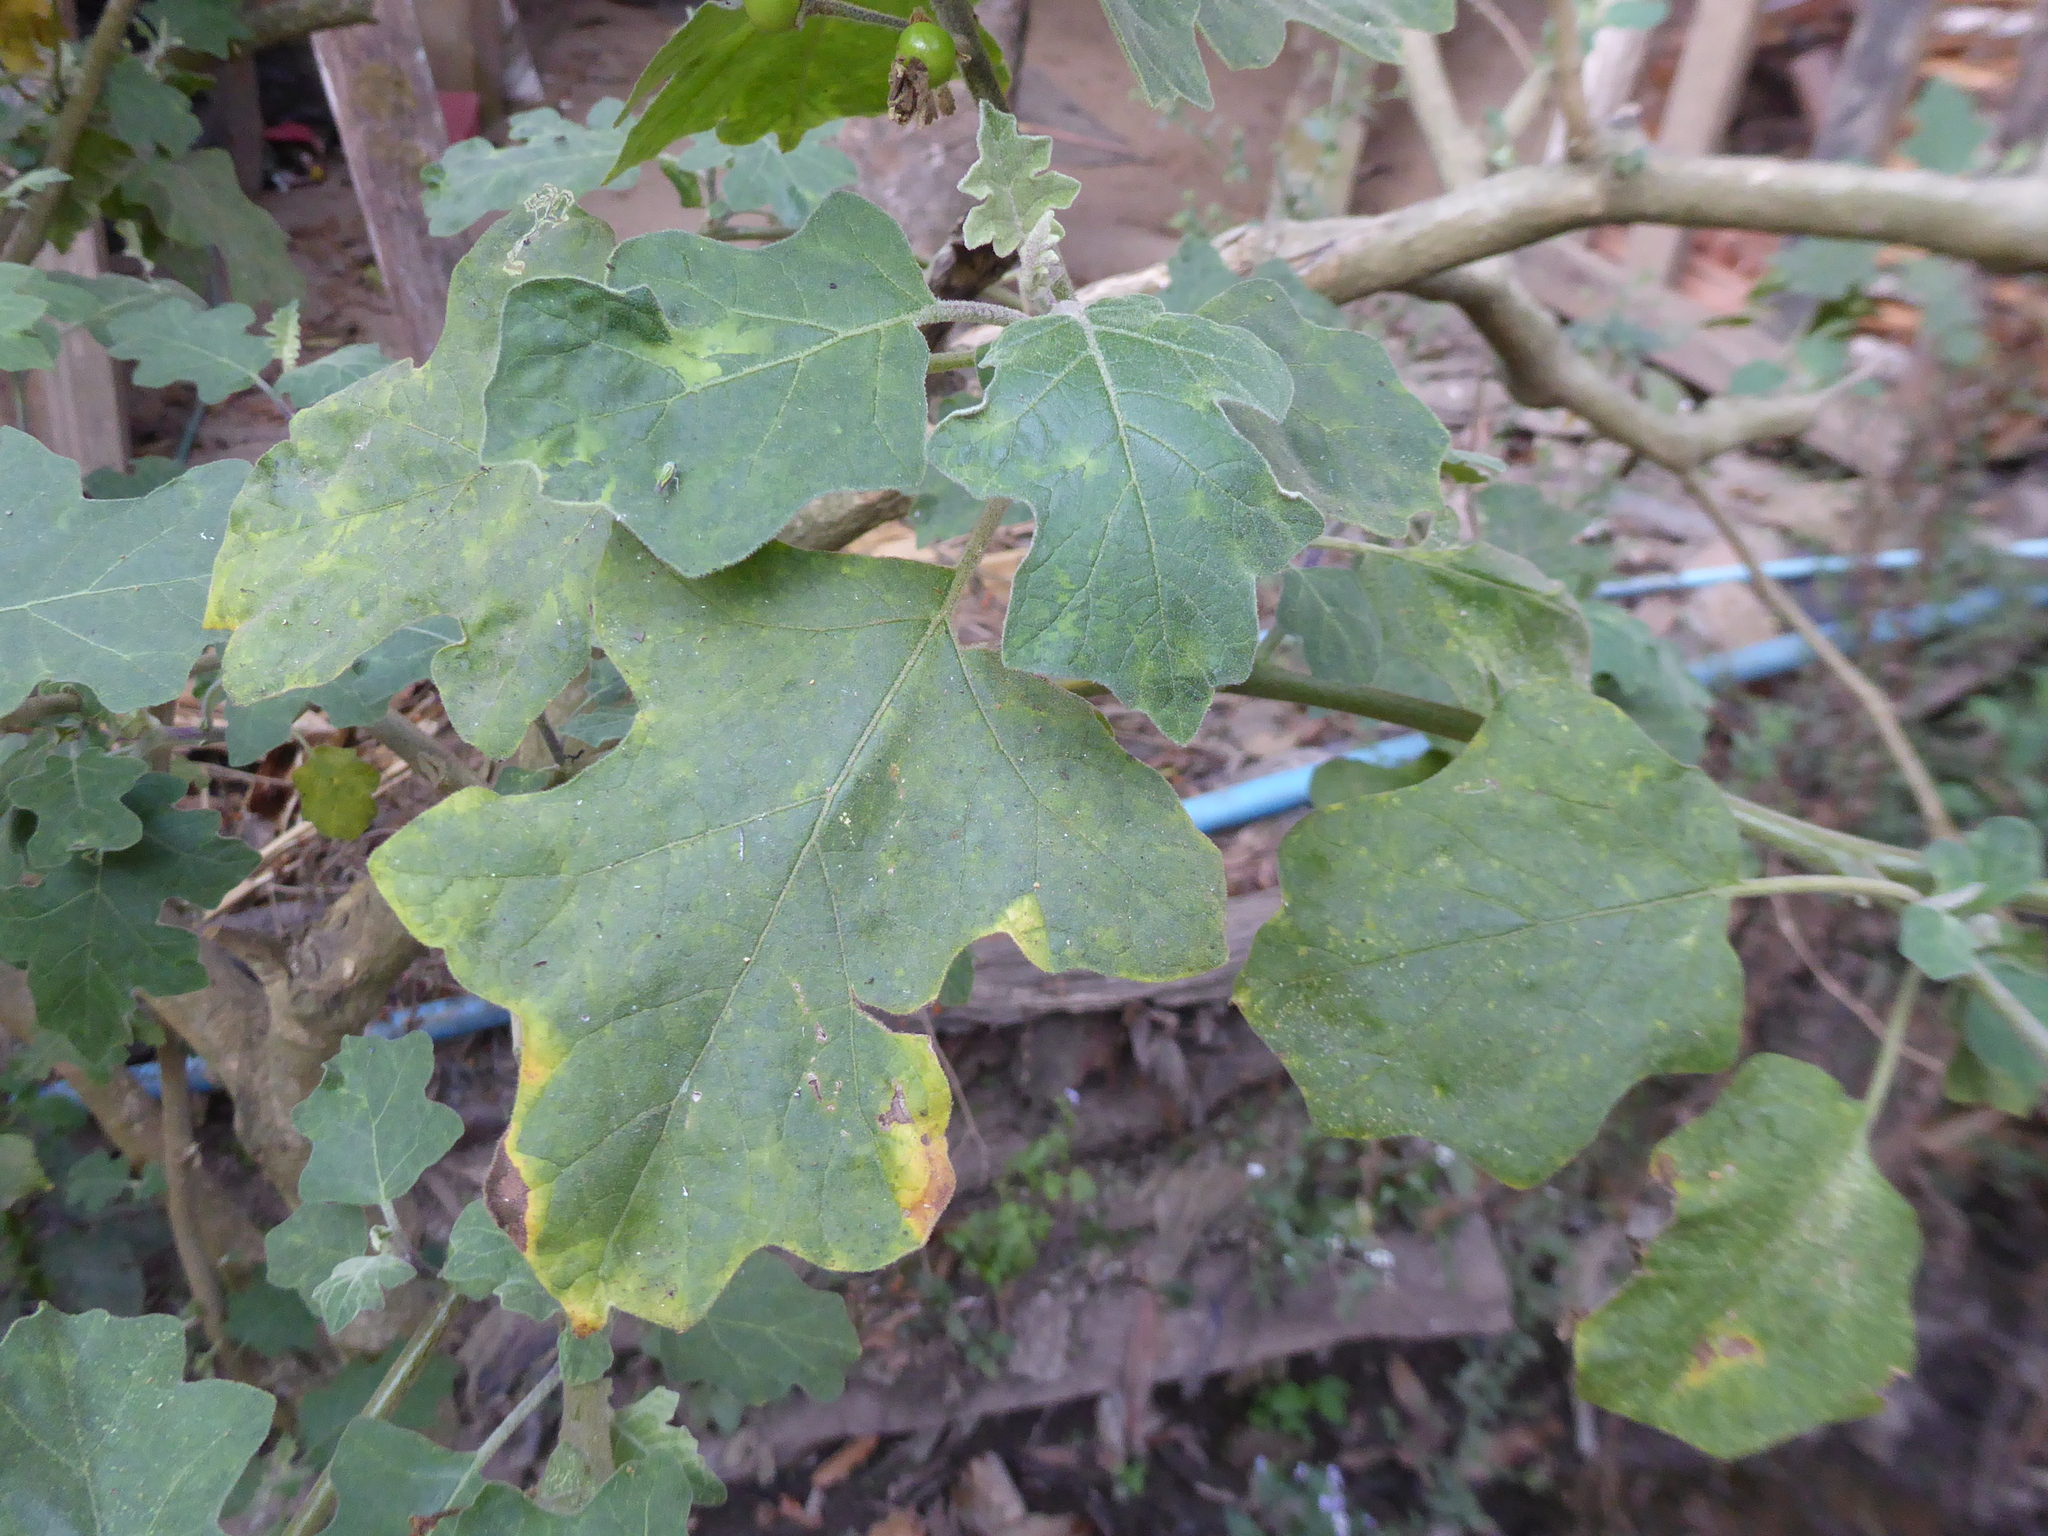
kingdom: Plantae
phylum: Tracheophyta
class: Magnoliopsida
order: Solanales
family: Solanaceae
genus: Solanum
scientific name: Solanum violaceum
